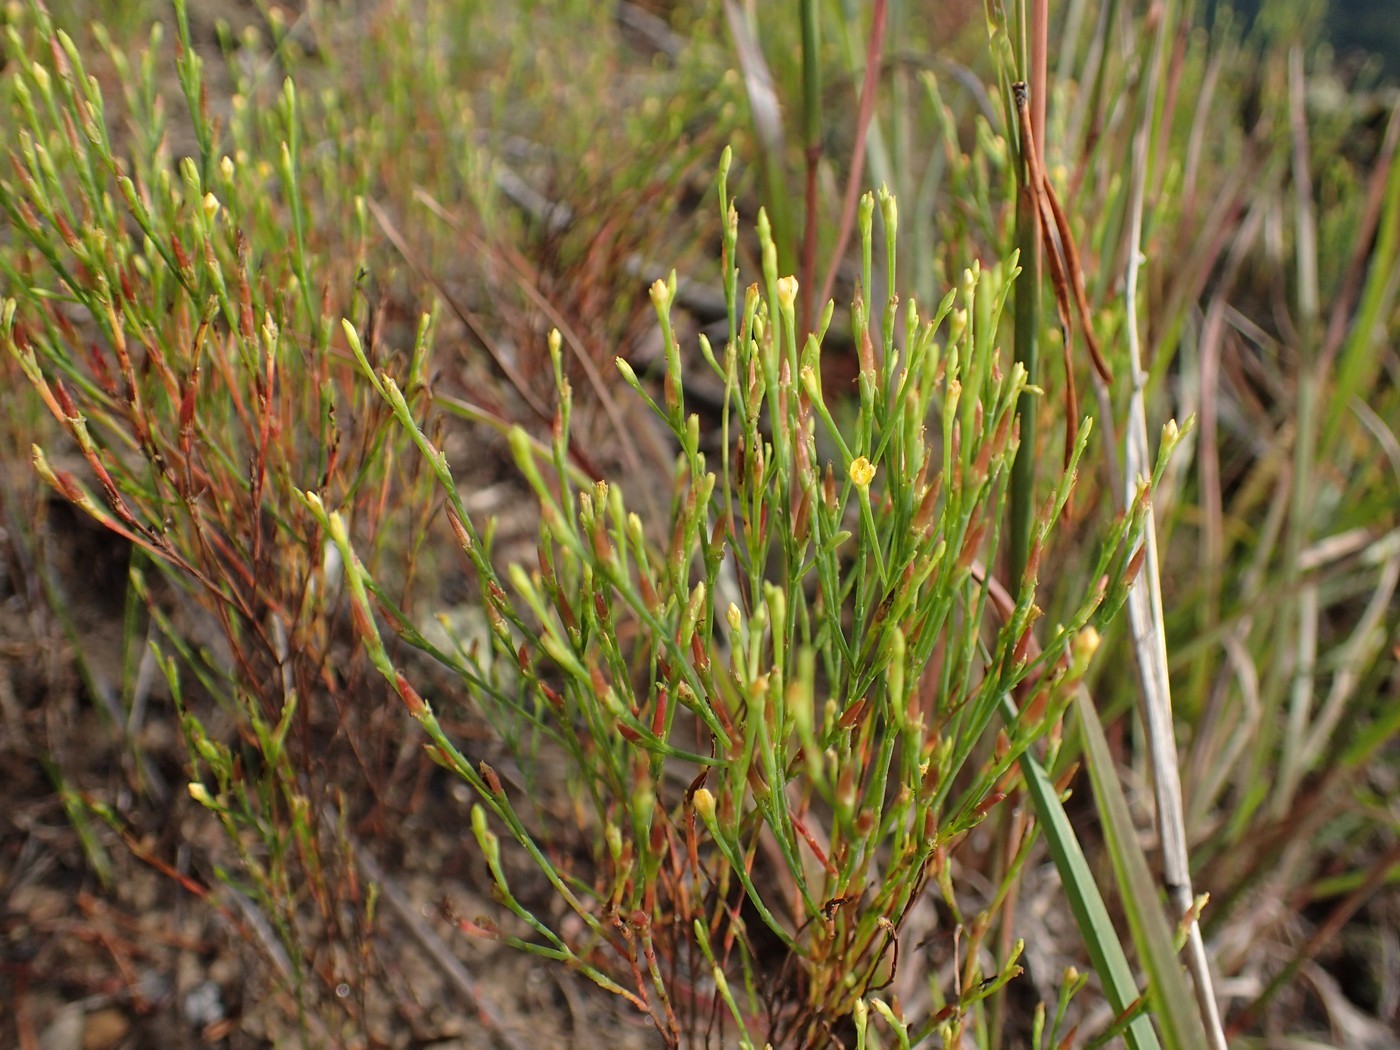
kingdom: Plantae
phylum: Tracheophyta
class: Magnoliopsida
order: Malpighiales
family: Hypericaceae
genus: Hypericum
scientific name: Hypericum gentianoides
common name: Gentian-leaved st. john's-wort
